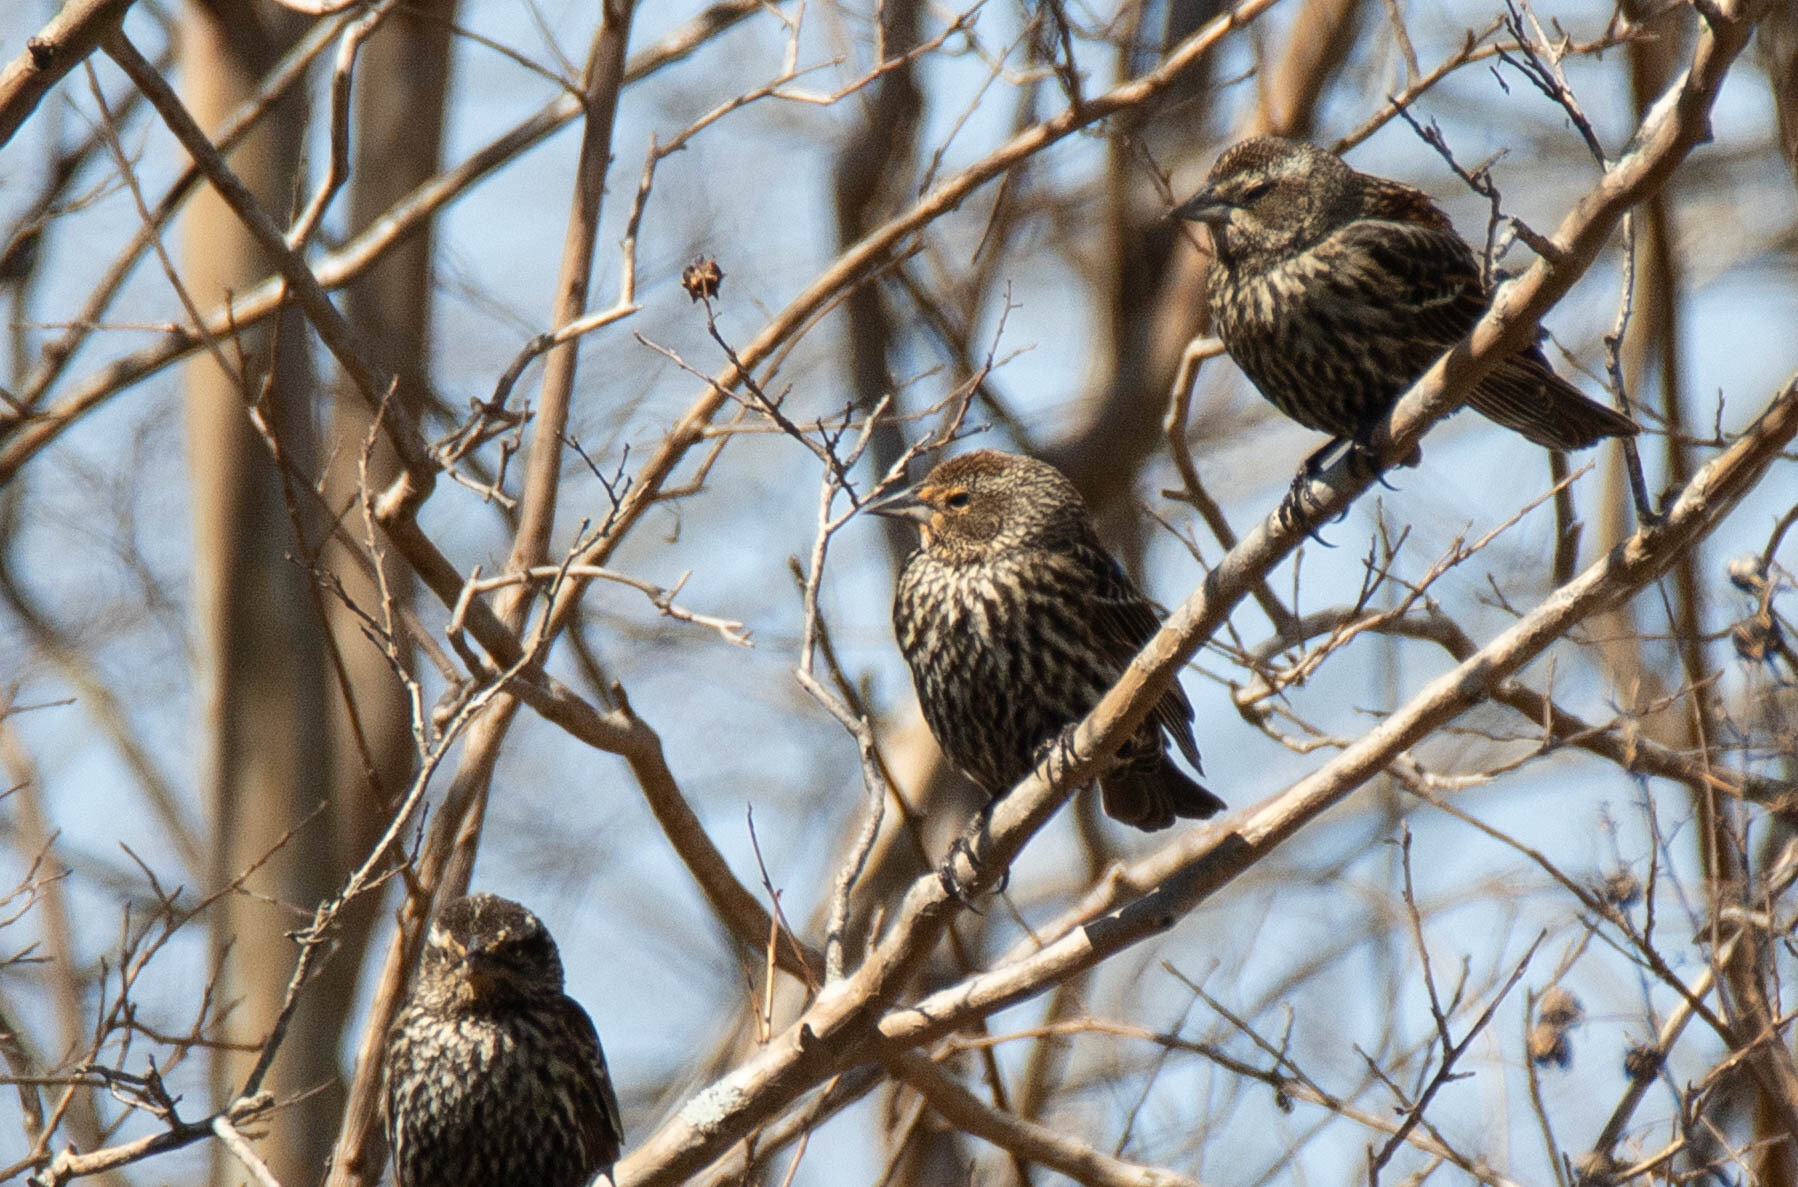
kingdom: Animalia
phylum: Chordata
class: Aves
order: Passeriformes
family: Icteridae
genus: Agelaius
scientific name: Agelaius phoeniceus
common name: Red-winged blackbird
